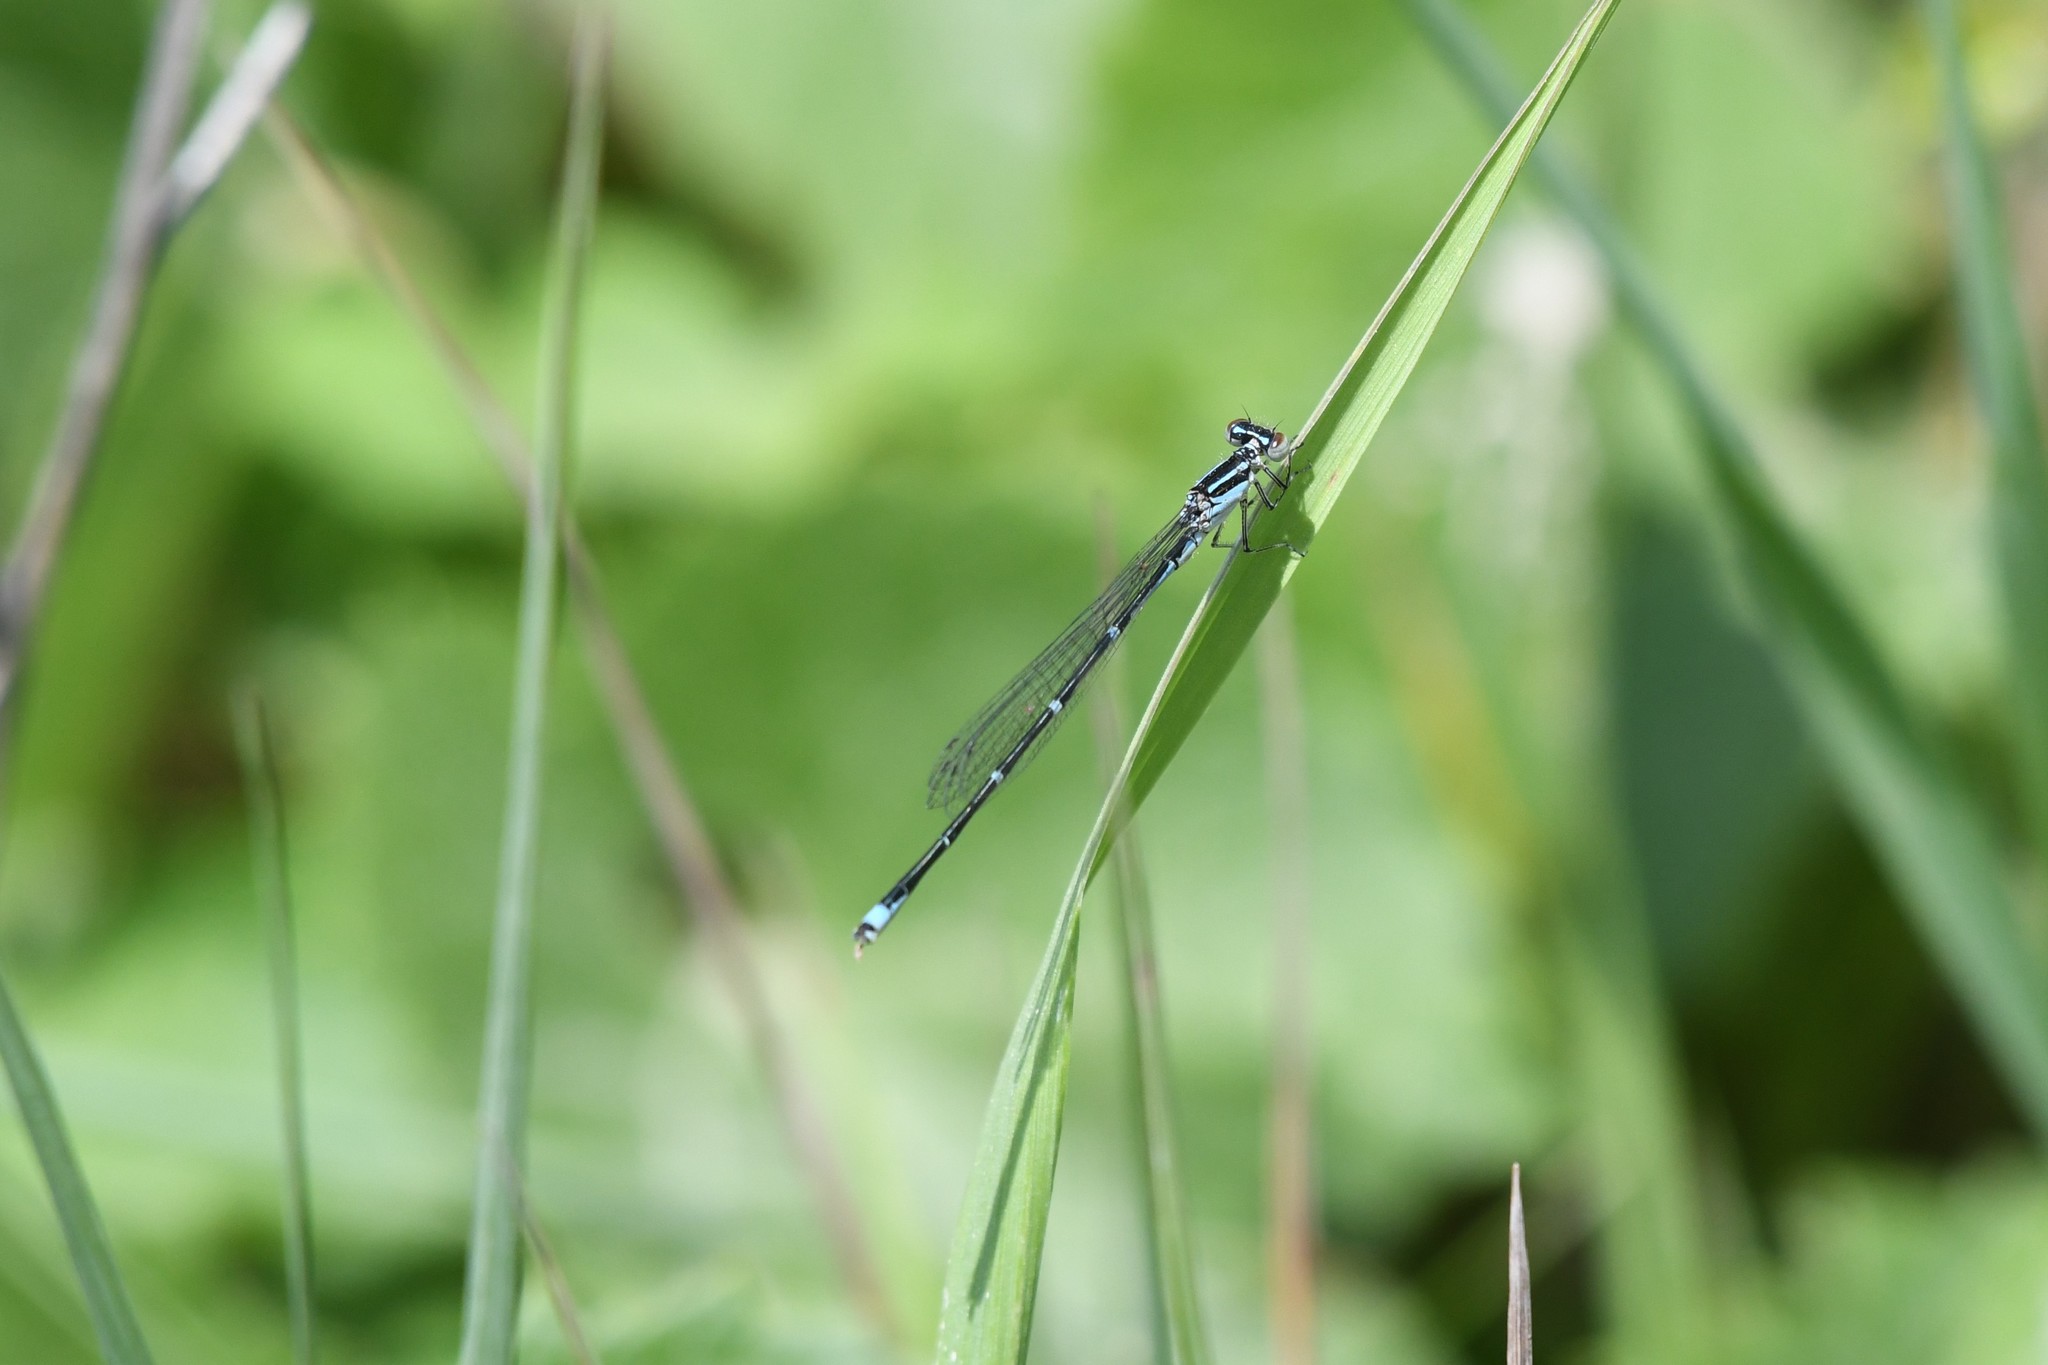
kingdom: Animalia
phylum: Arthropoda
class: Insecta
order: Odonata
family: Coenagrionidae
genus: Enallagma
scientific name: Enallagma exsulans
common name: Stream bluet
